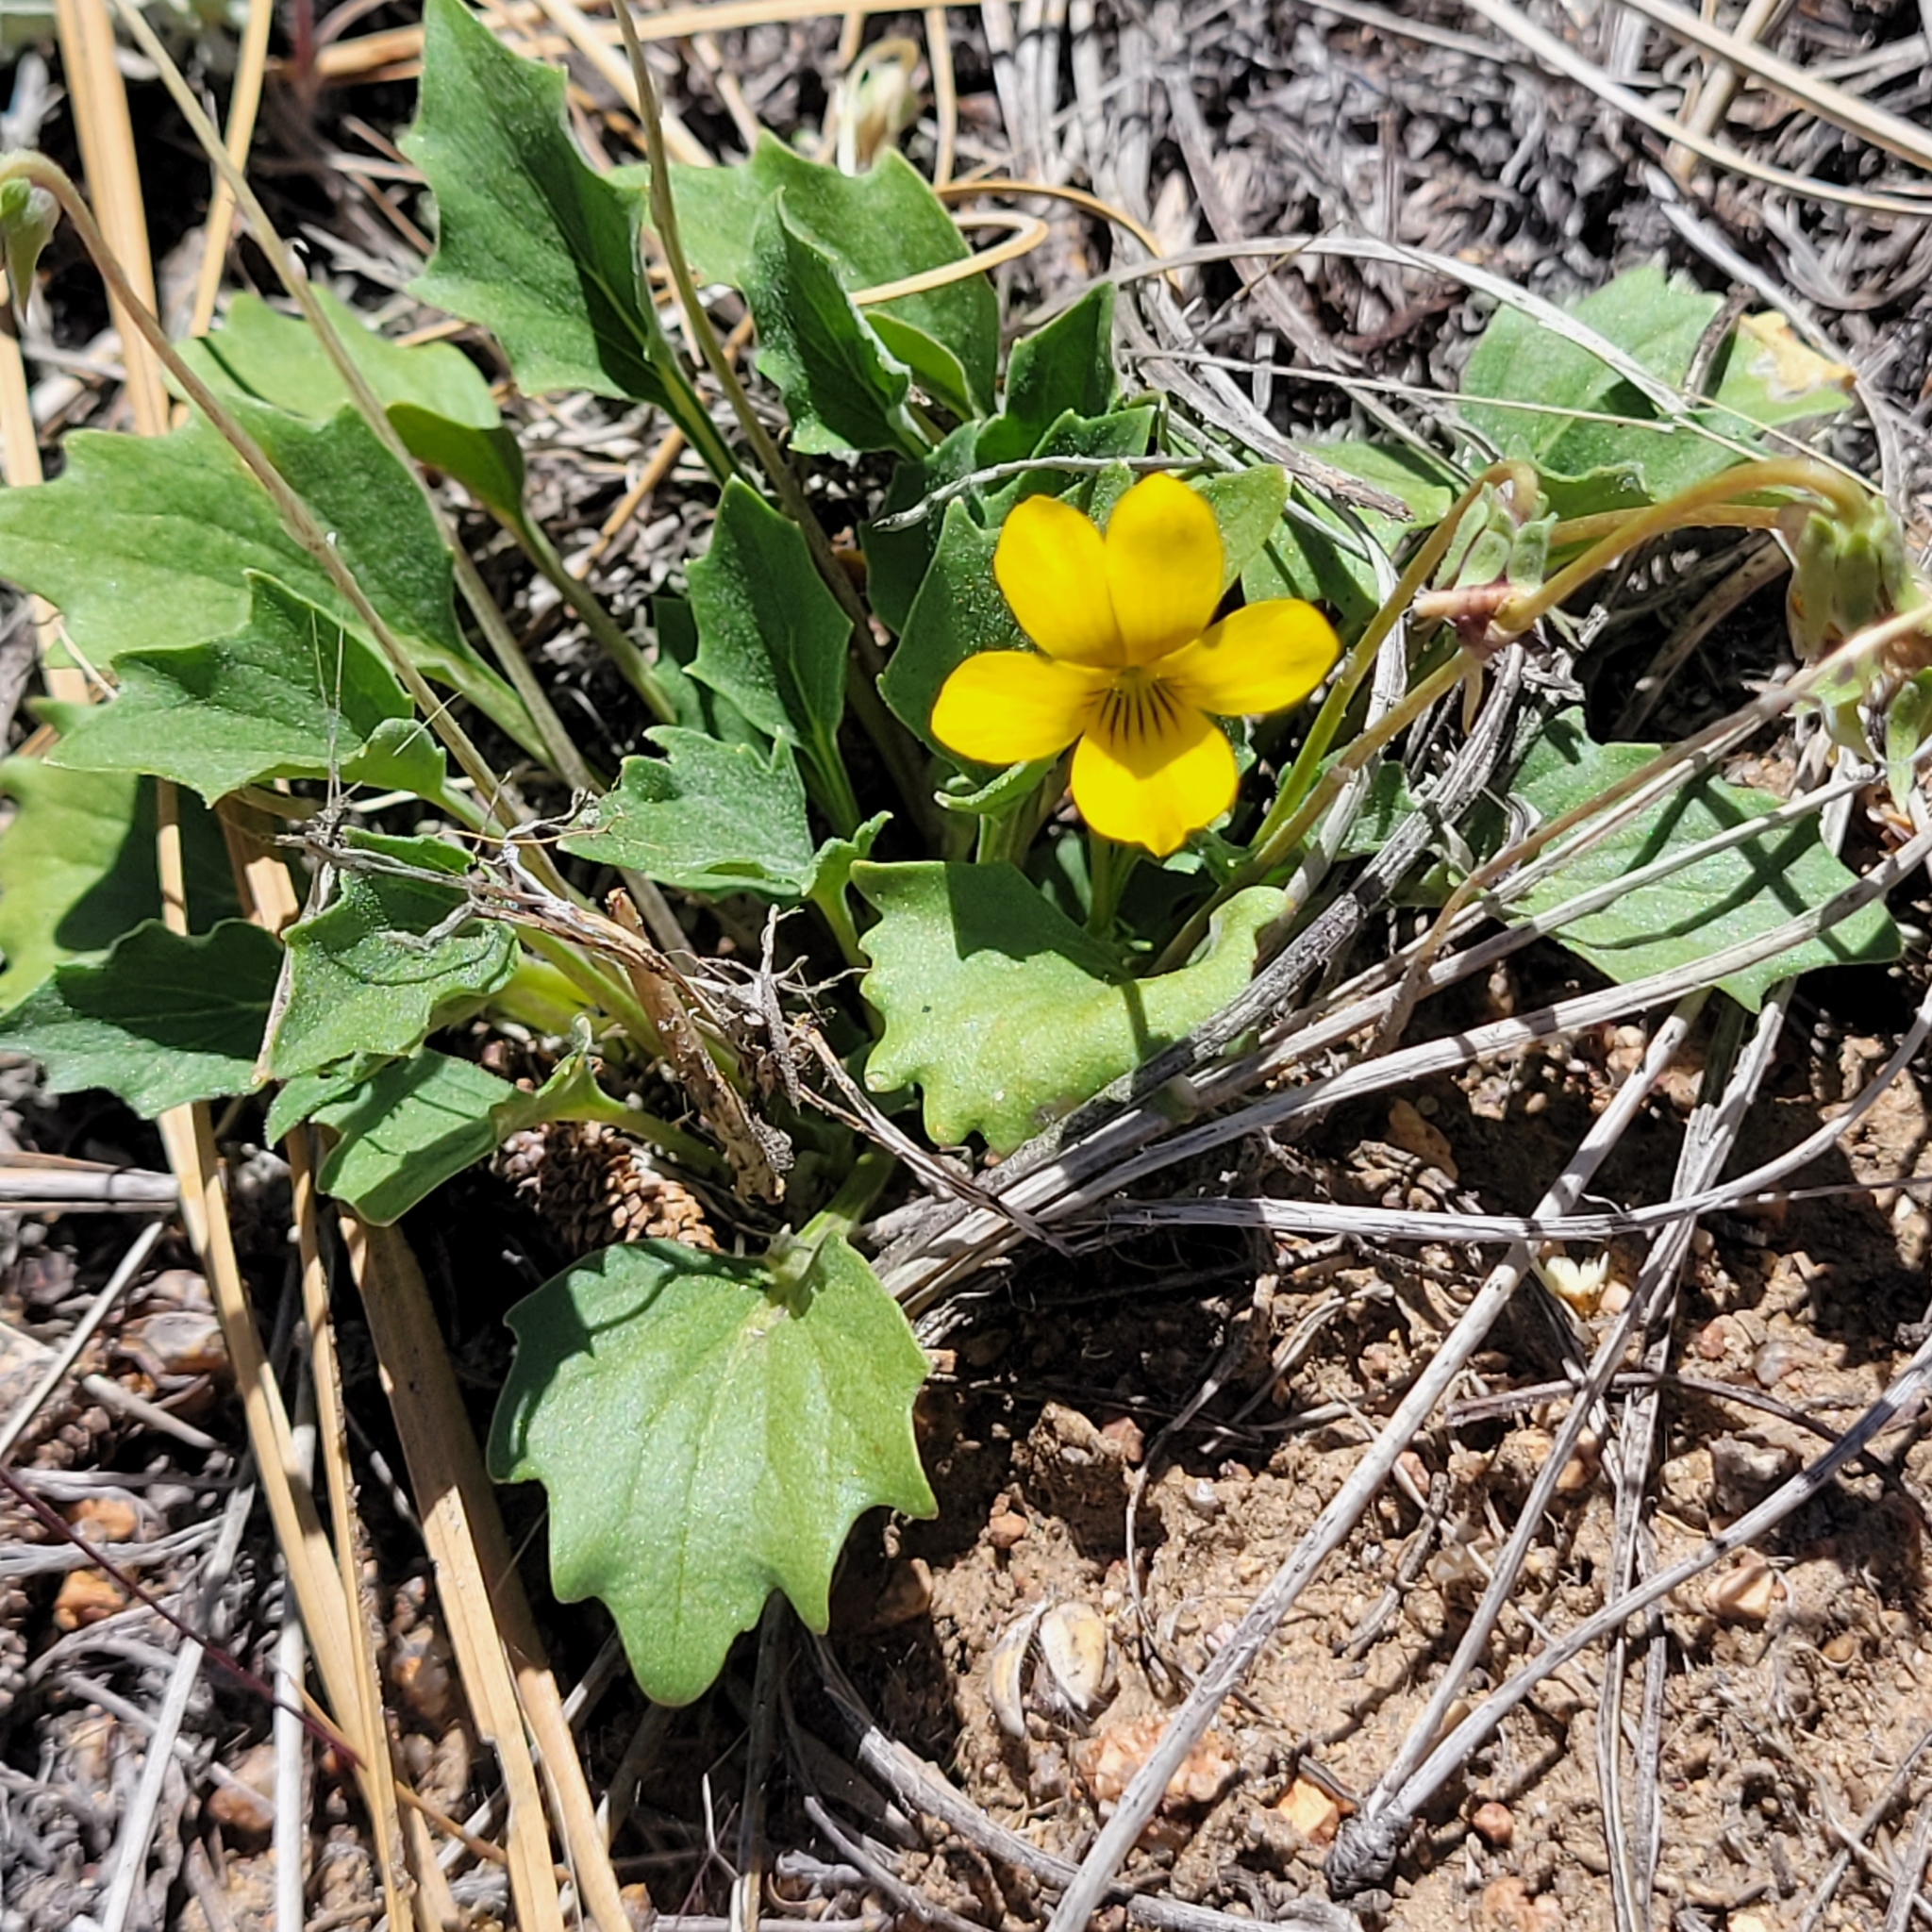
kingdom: Plantae
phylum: Tracheophyta
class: Magnoliopsida
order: Malpighiales
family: Violaceae
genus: Viola
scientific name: Viola purpurea
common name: Pine violet
